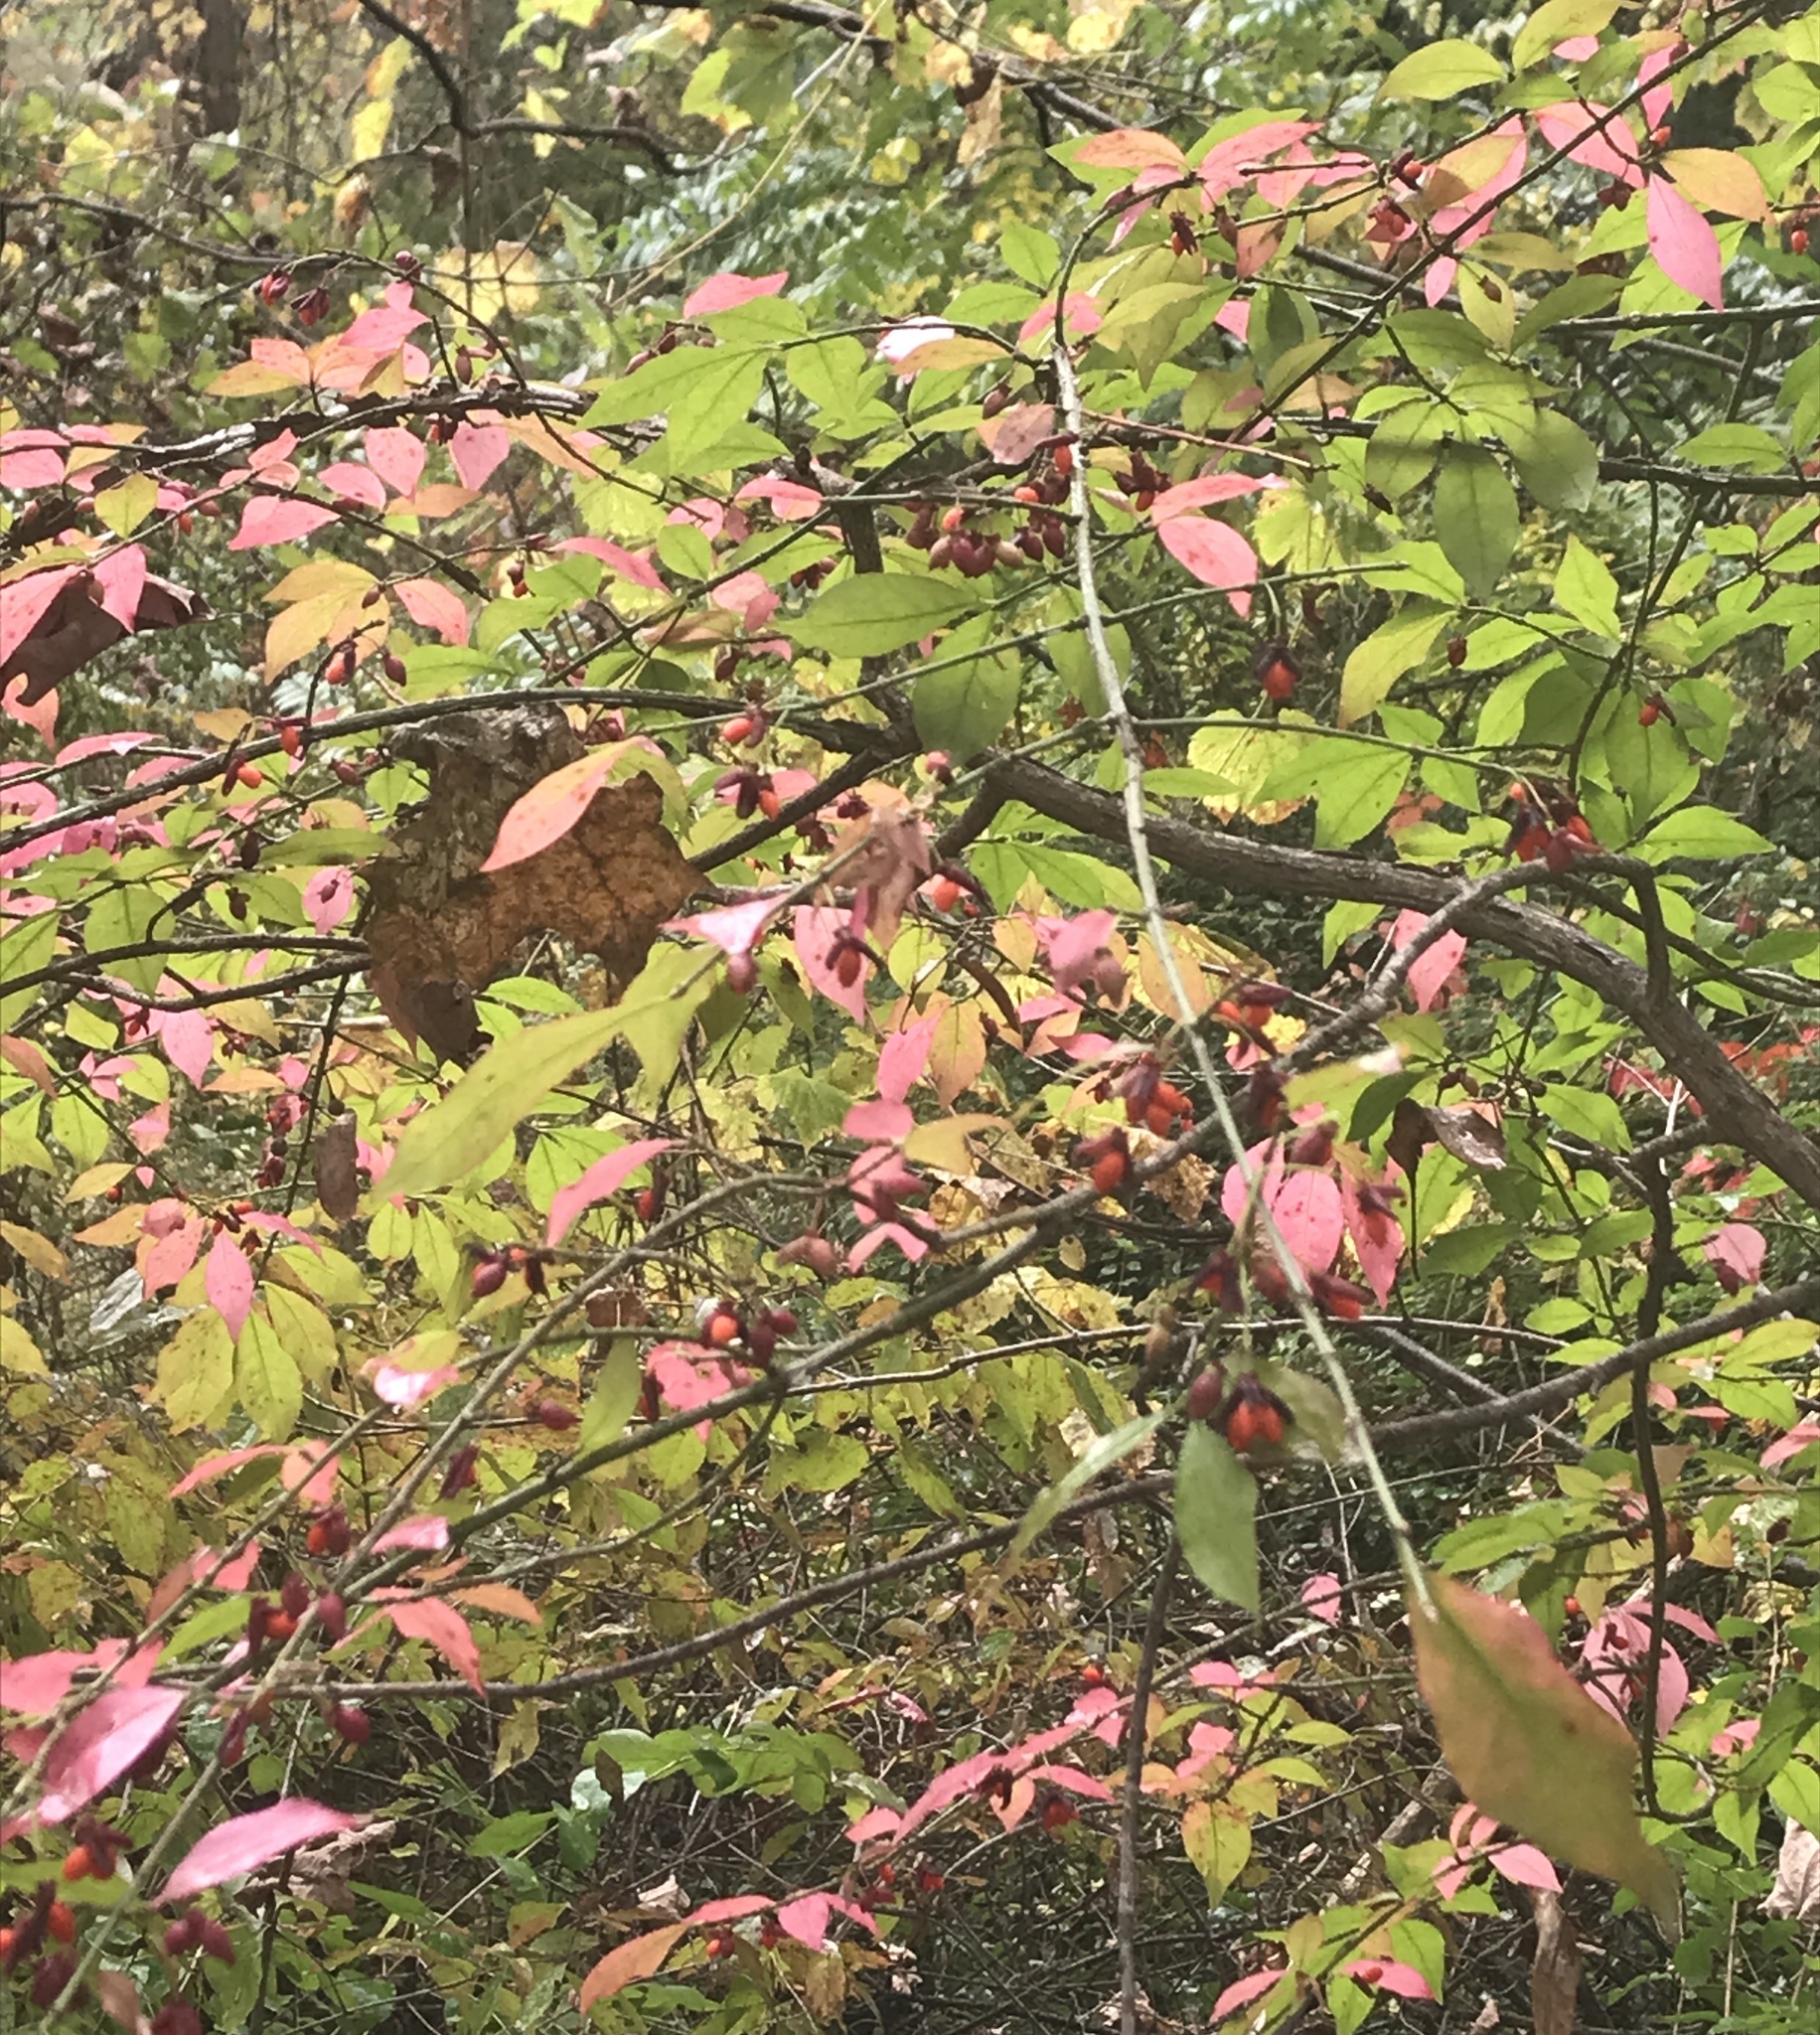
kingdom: Plantae
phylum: Tracheophyta
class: Magnoliopsida
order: Celastrales
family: Celastraceae
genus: Euonymus
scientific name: Euonymus alatus
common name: Winged euonymus
